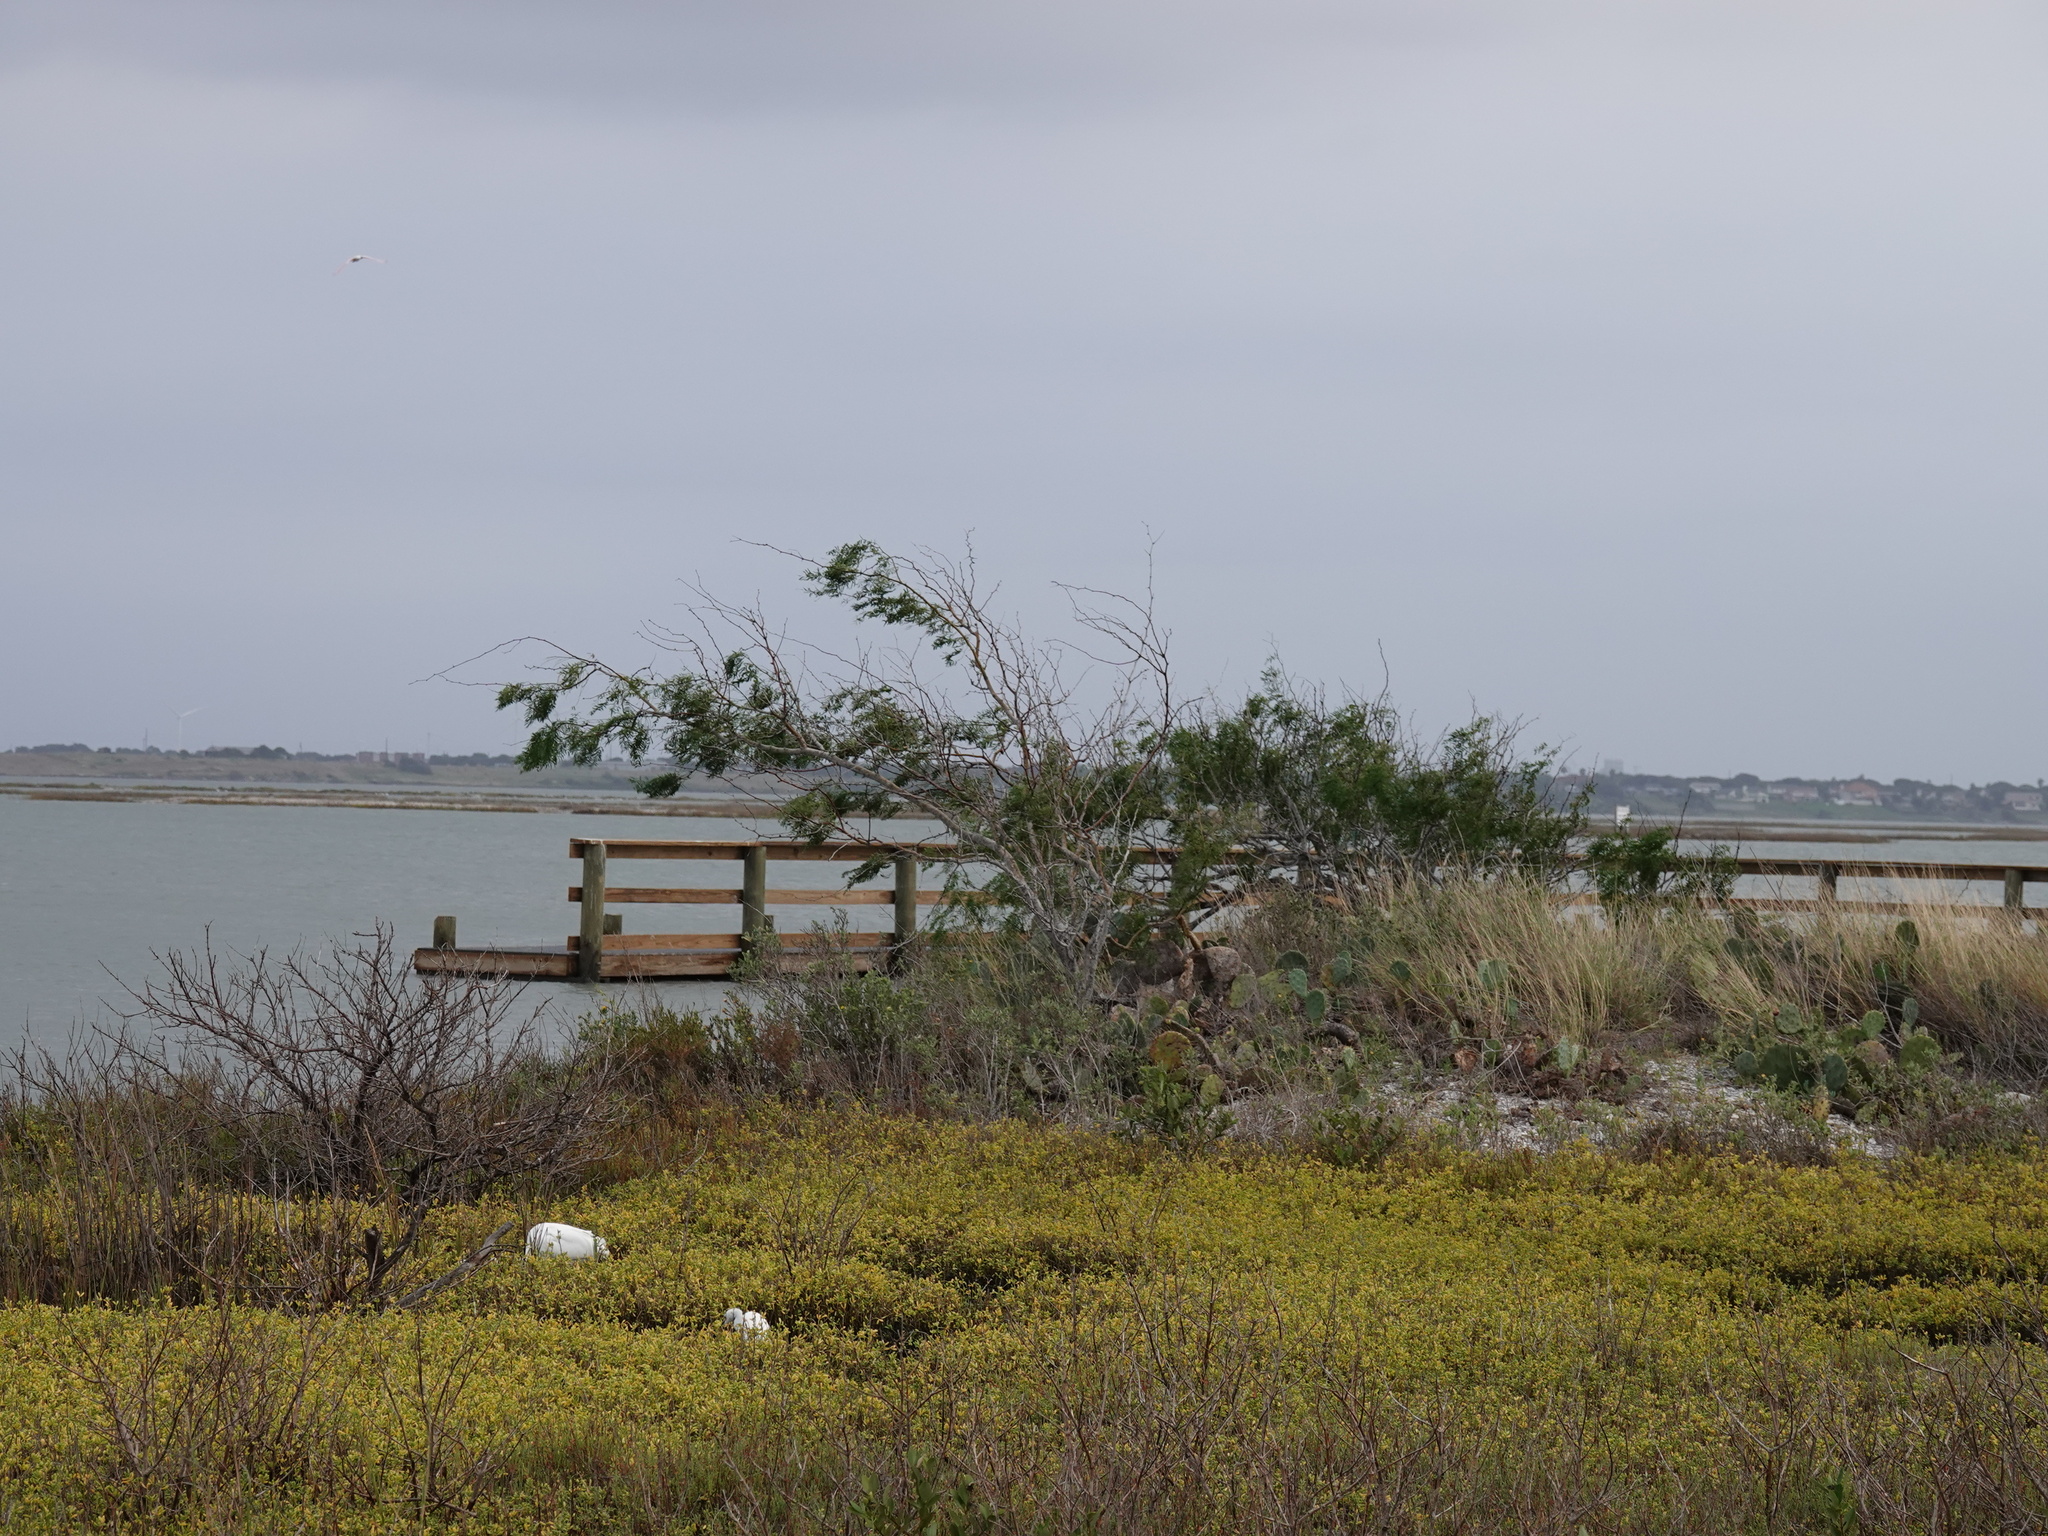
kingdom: Plantae
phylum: Tracheophyta
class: Magnoliopsida
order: Fabales
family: Fabaceae
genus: Prosopis
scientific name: Prosopis glandulosa
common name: Honey mesquite
